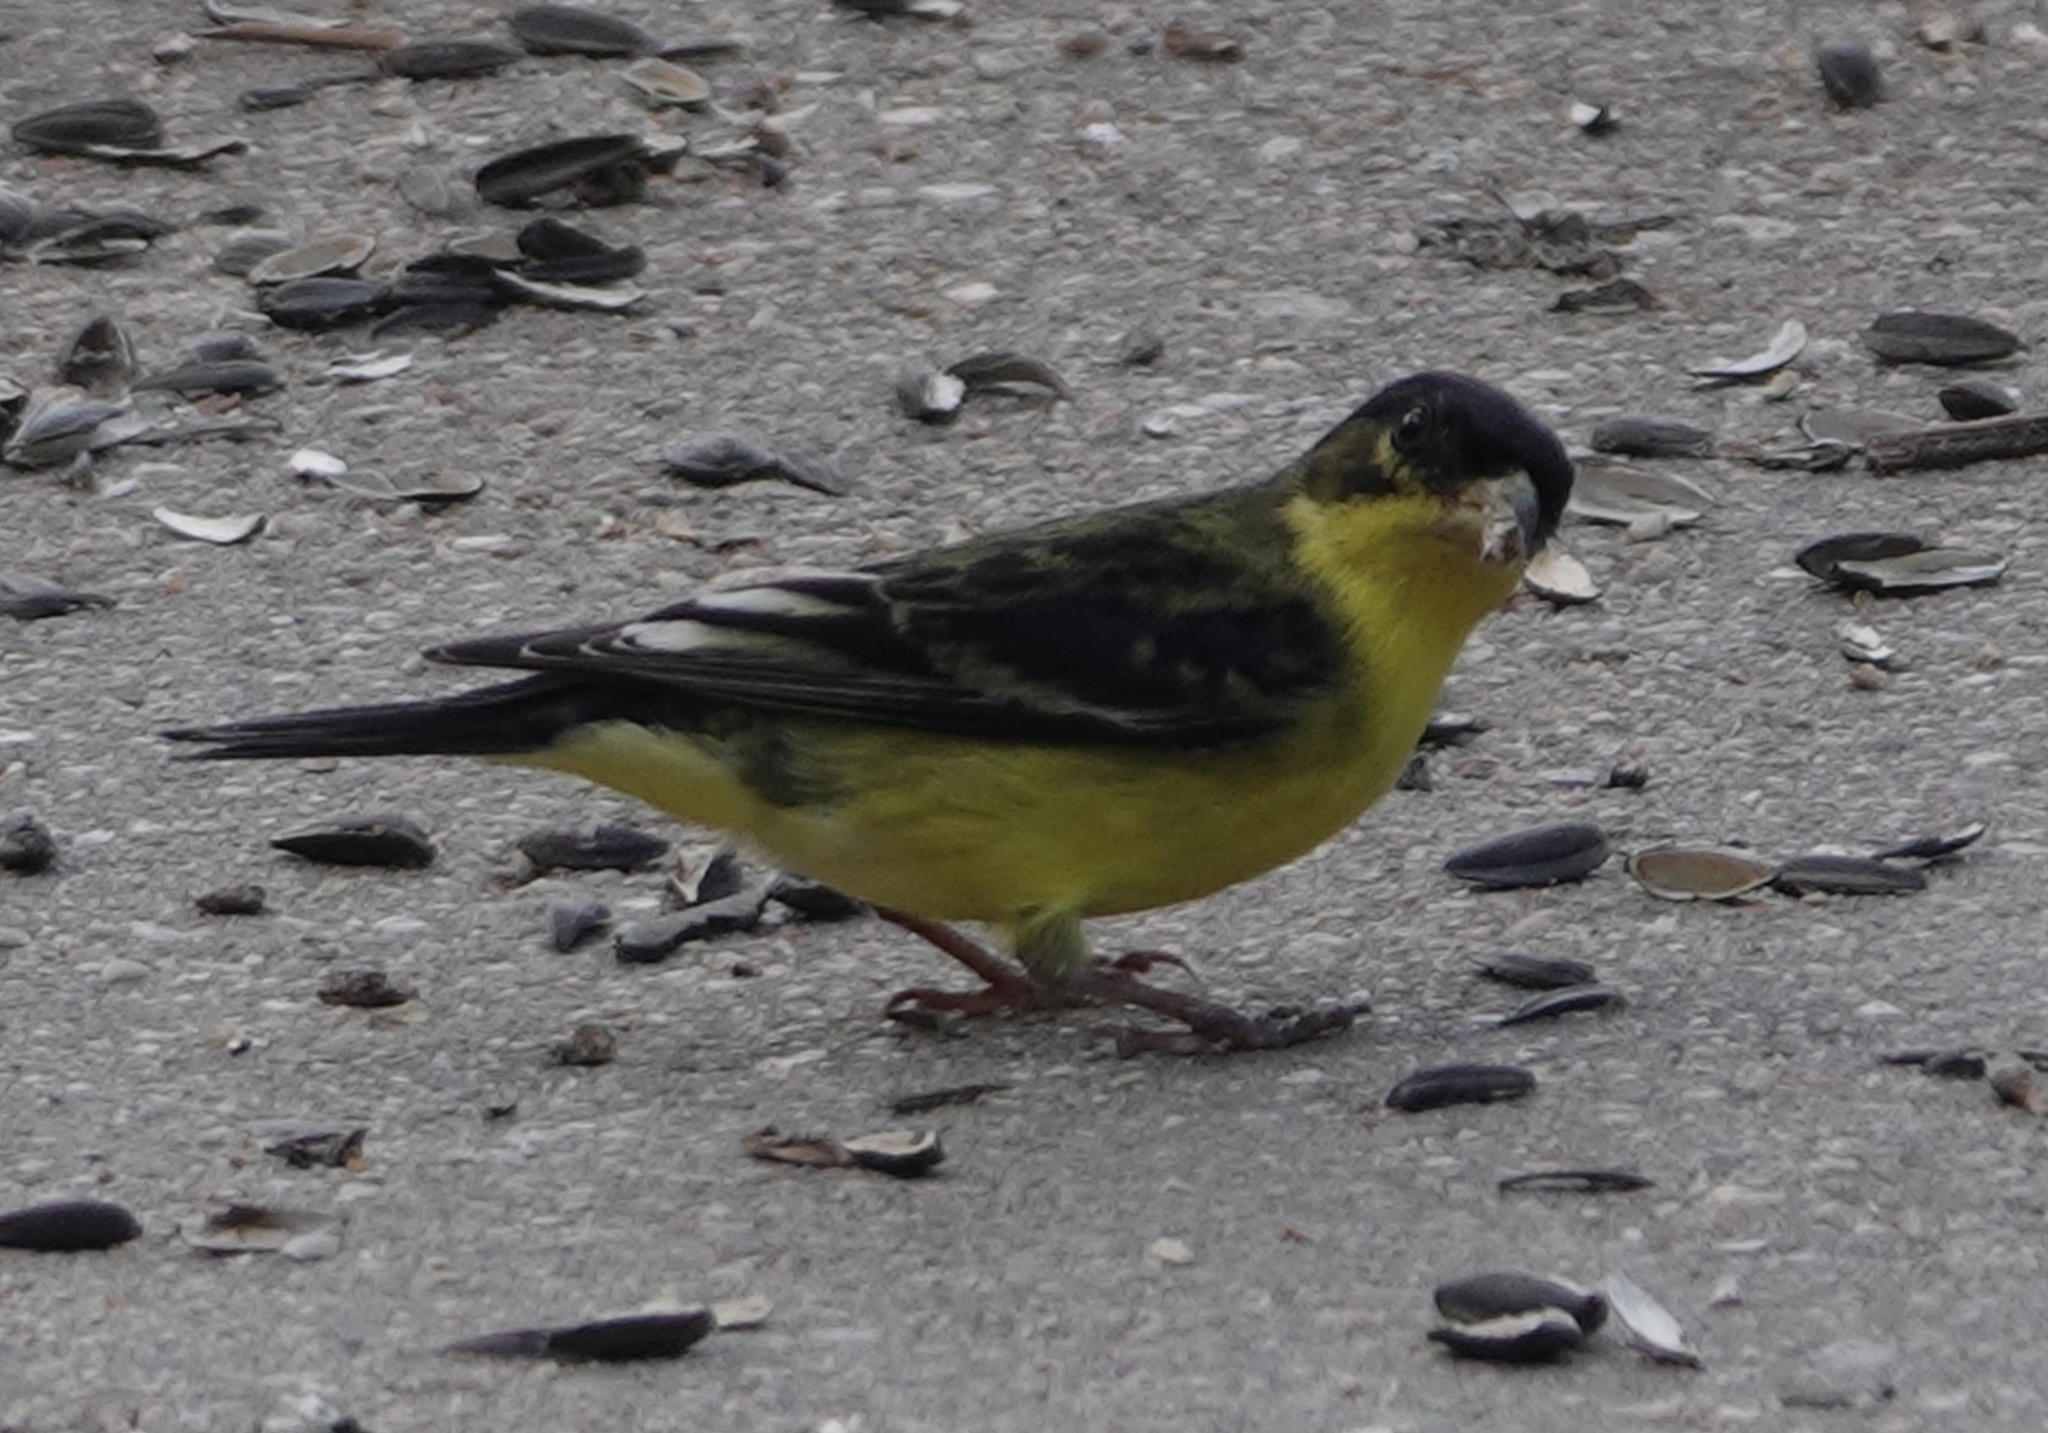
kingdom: Animalia
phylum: Chordata
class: Aves
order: Passeriformes
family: Fringillidae
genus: Spinus
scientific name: Spinus psaltria
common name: Lesser goldfinch
